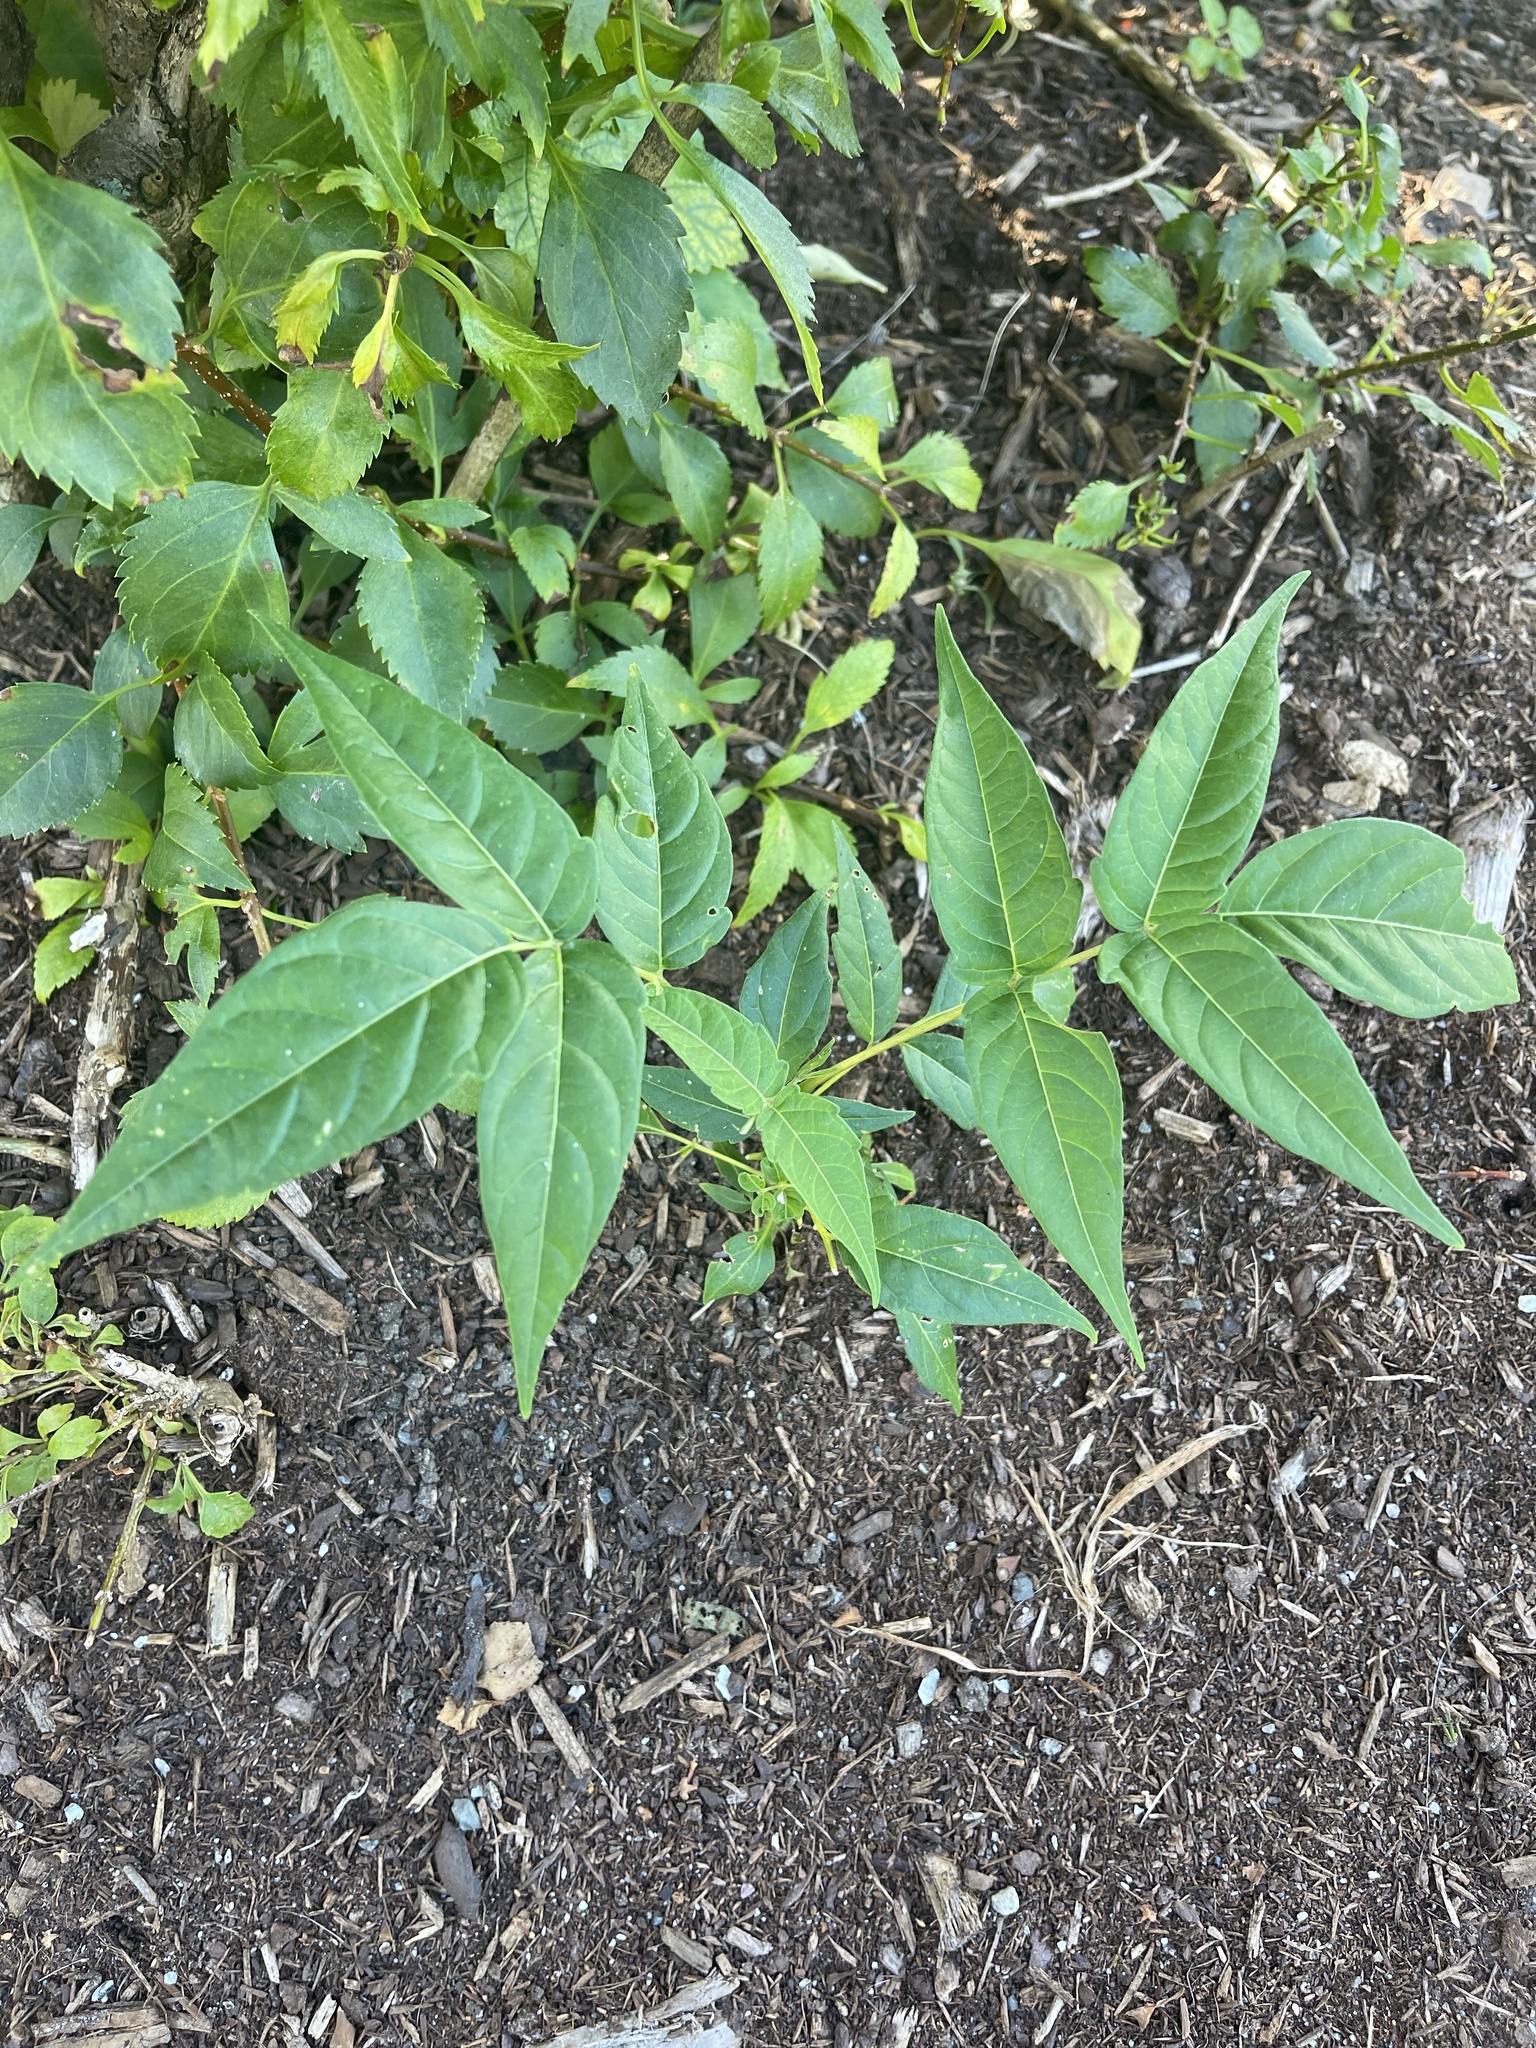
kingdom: Plantae
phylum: Tracheophyta
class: Magnoliopsida
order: Sapindales
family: Simaroubaceae
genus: Ailanthus
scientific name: Ailanthus altissima
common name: Tree-of-heaven
